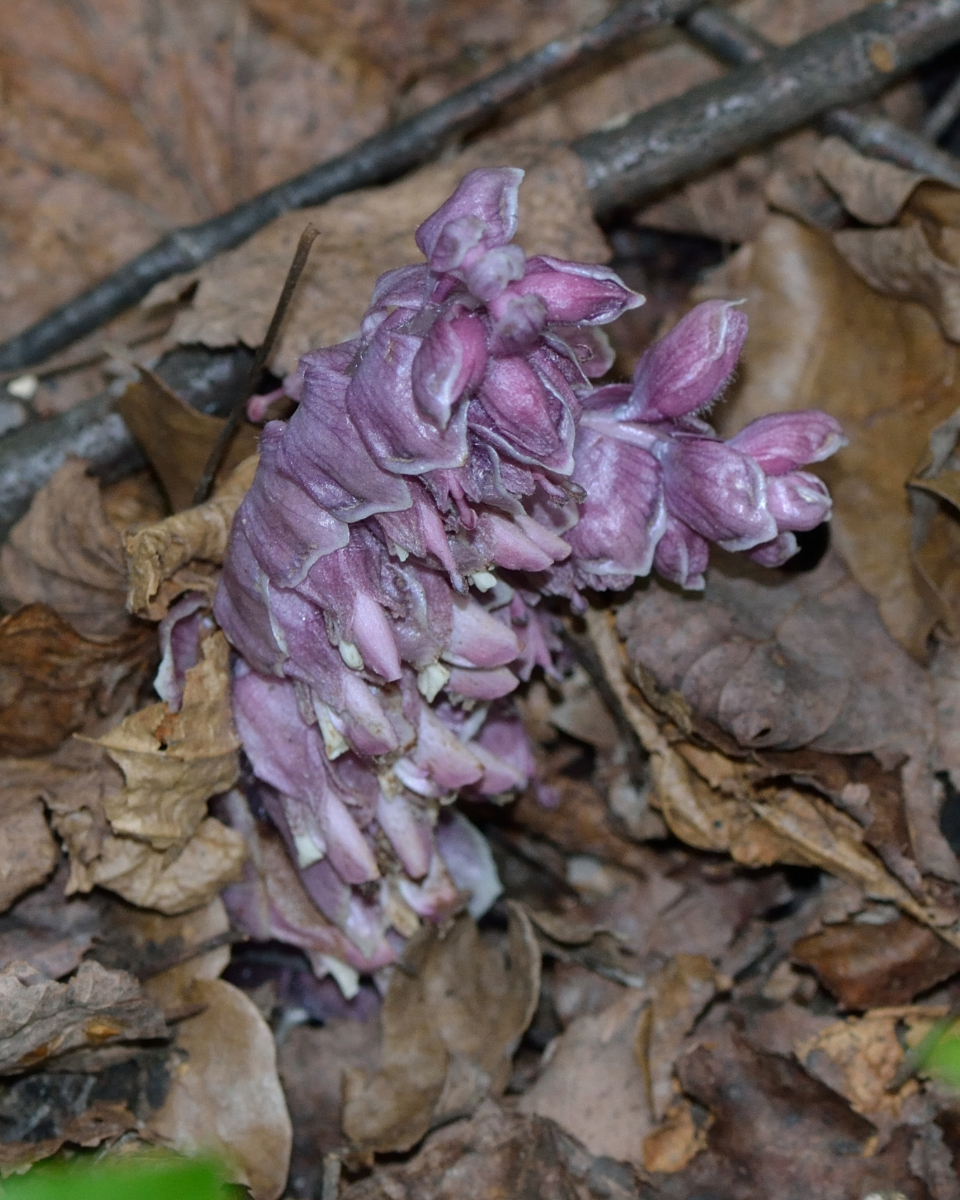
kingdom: Plantae
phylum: Tracheophyta
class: Magnoliopsida
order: Lamiales
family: Orobanchaceae
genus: Lathraea
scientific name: Lathraea squamaria
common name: Toothwort
